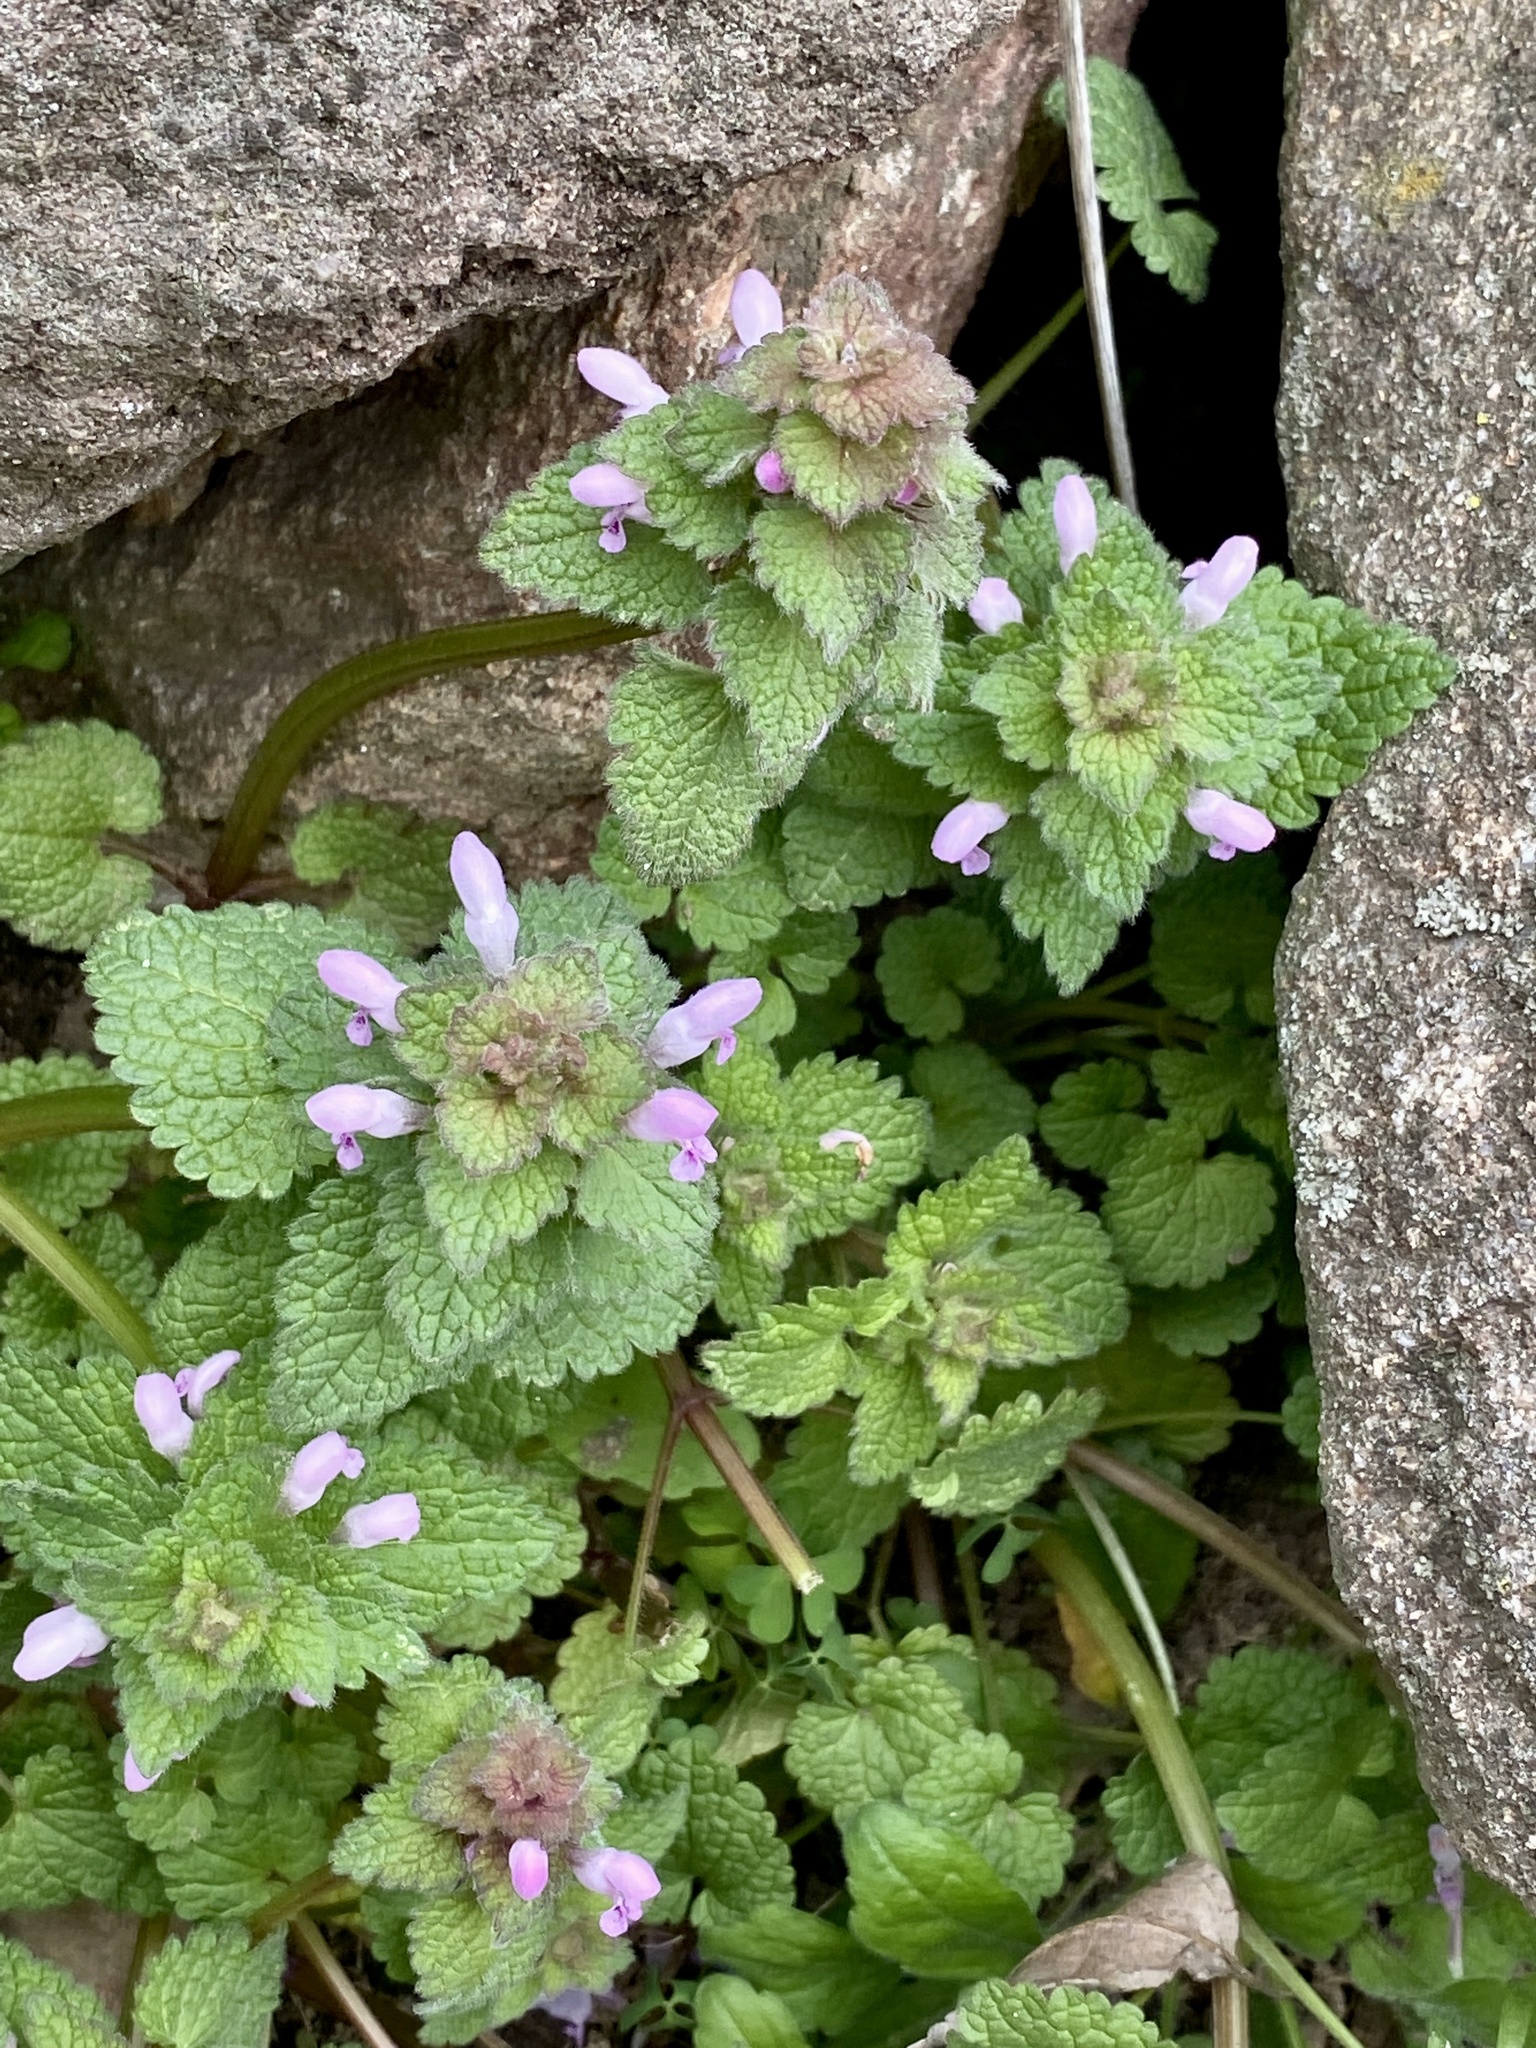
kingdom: Plantae
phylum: Tracheophyta
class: Magnoliopsida
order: Lamiales
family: Lamiaceae
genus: Lamium
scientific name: Lamium purpureum
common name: Red dead-nettle
